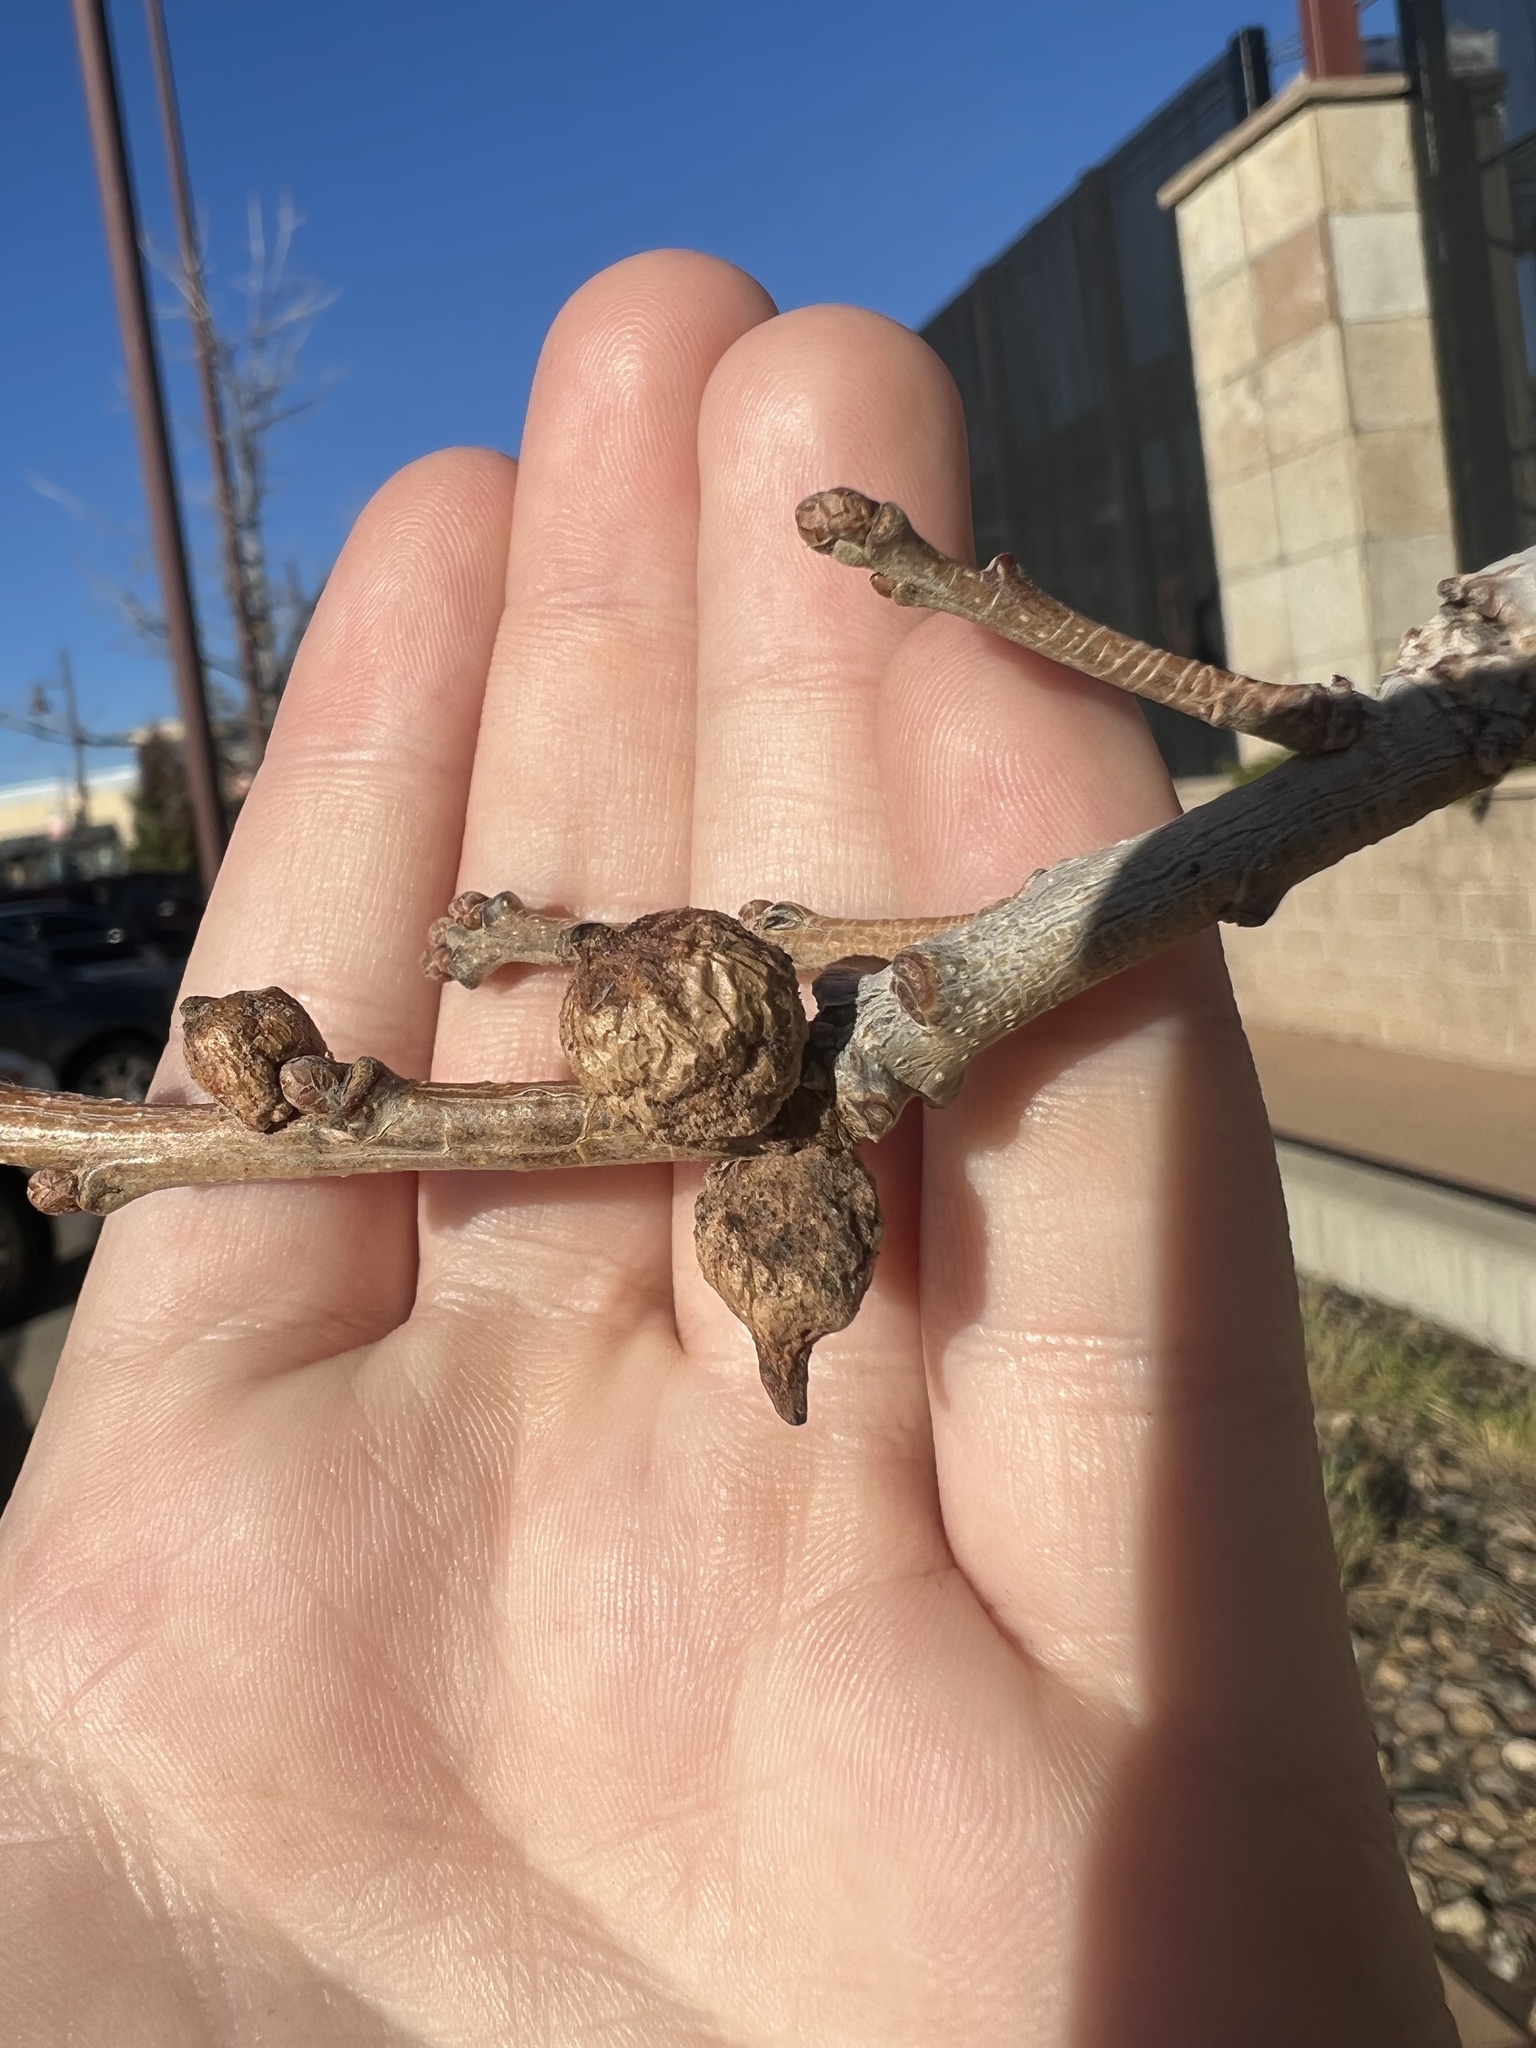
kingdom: Animalia
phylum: Arthropoda
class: Insecta
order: Hymenoptera
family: Cynipidae
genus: Disholcaspis
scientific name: Disholcaspis
